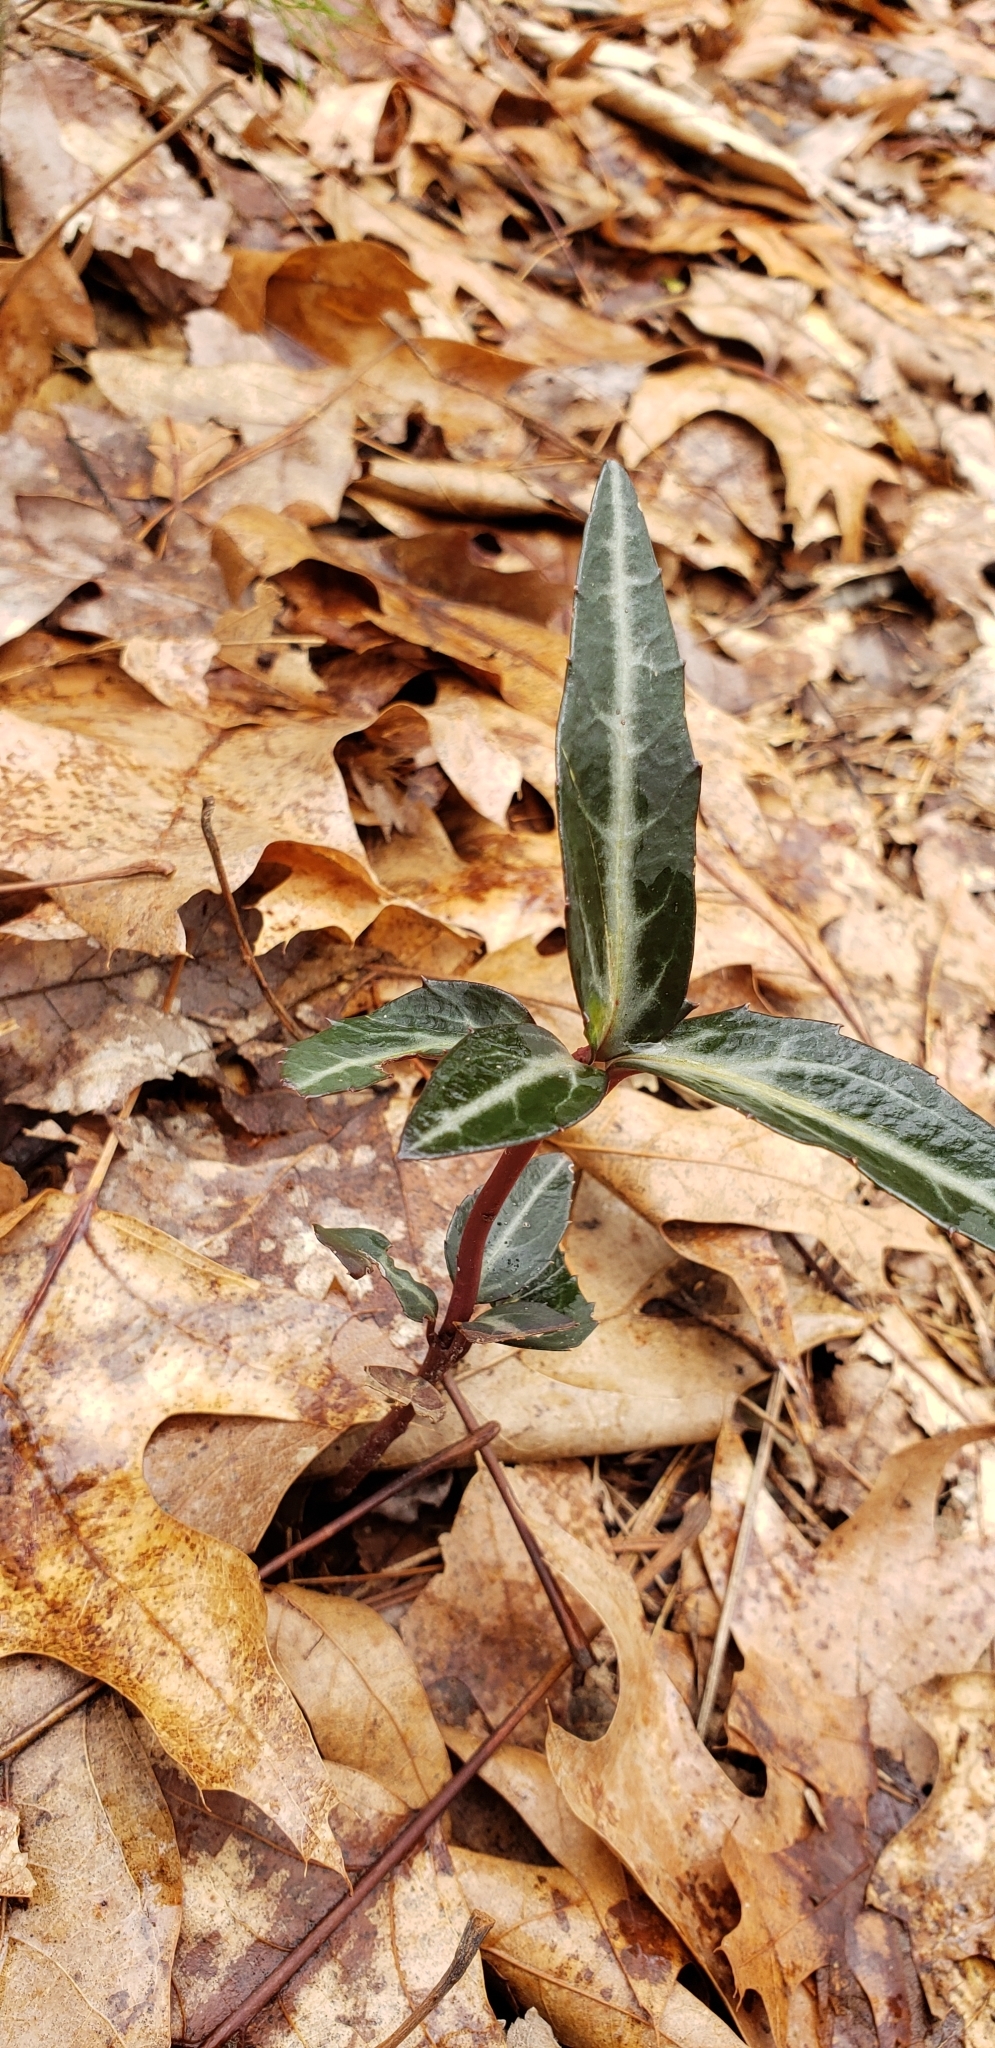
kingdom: Plantae
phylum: Tracheophyta
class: Magnoliopsida
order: Ericales
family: Ericaceae
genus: Chimaphila
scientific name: Chimaphila maculata
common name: Spotted pipsissewa
